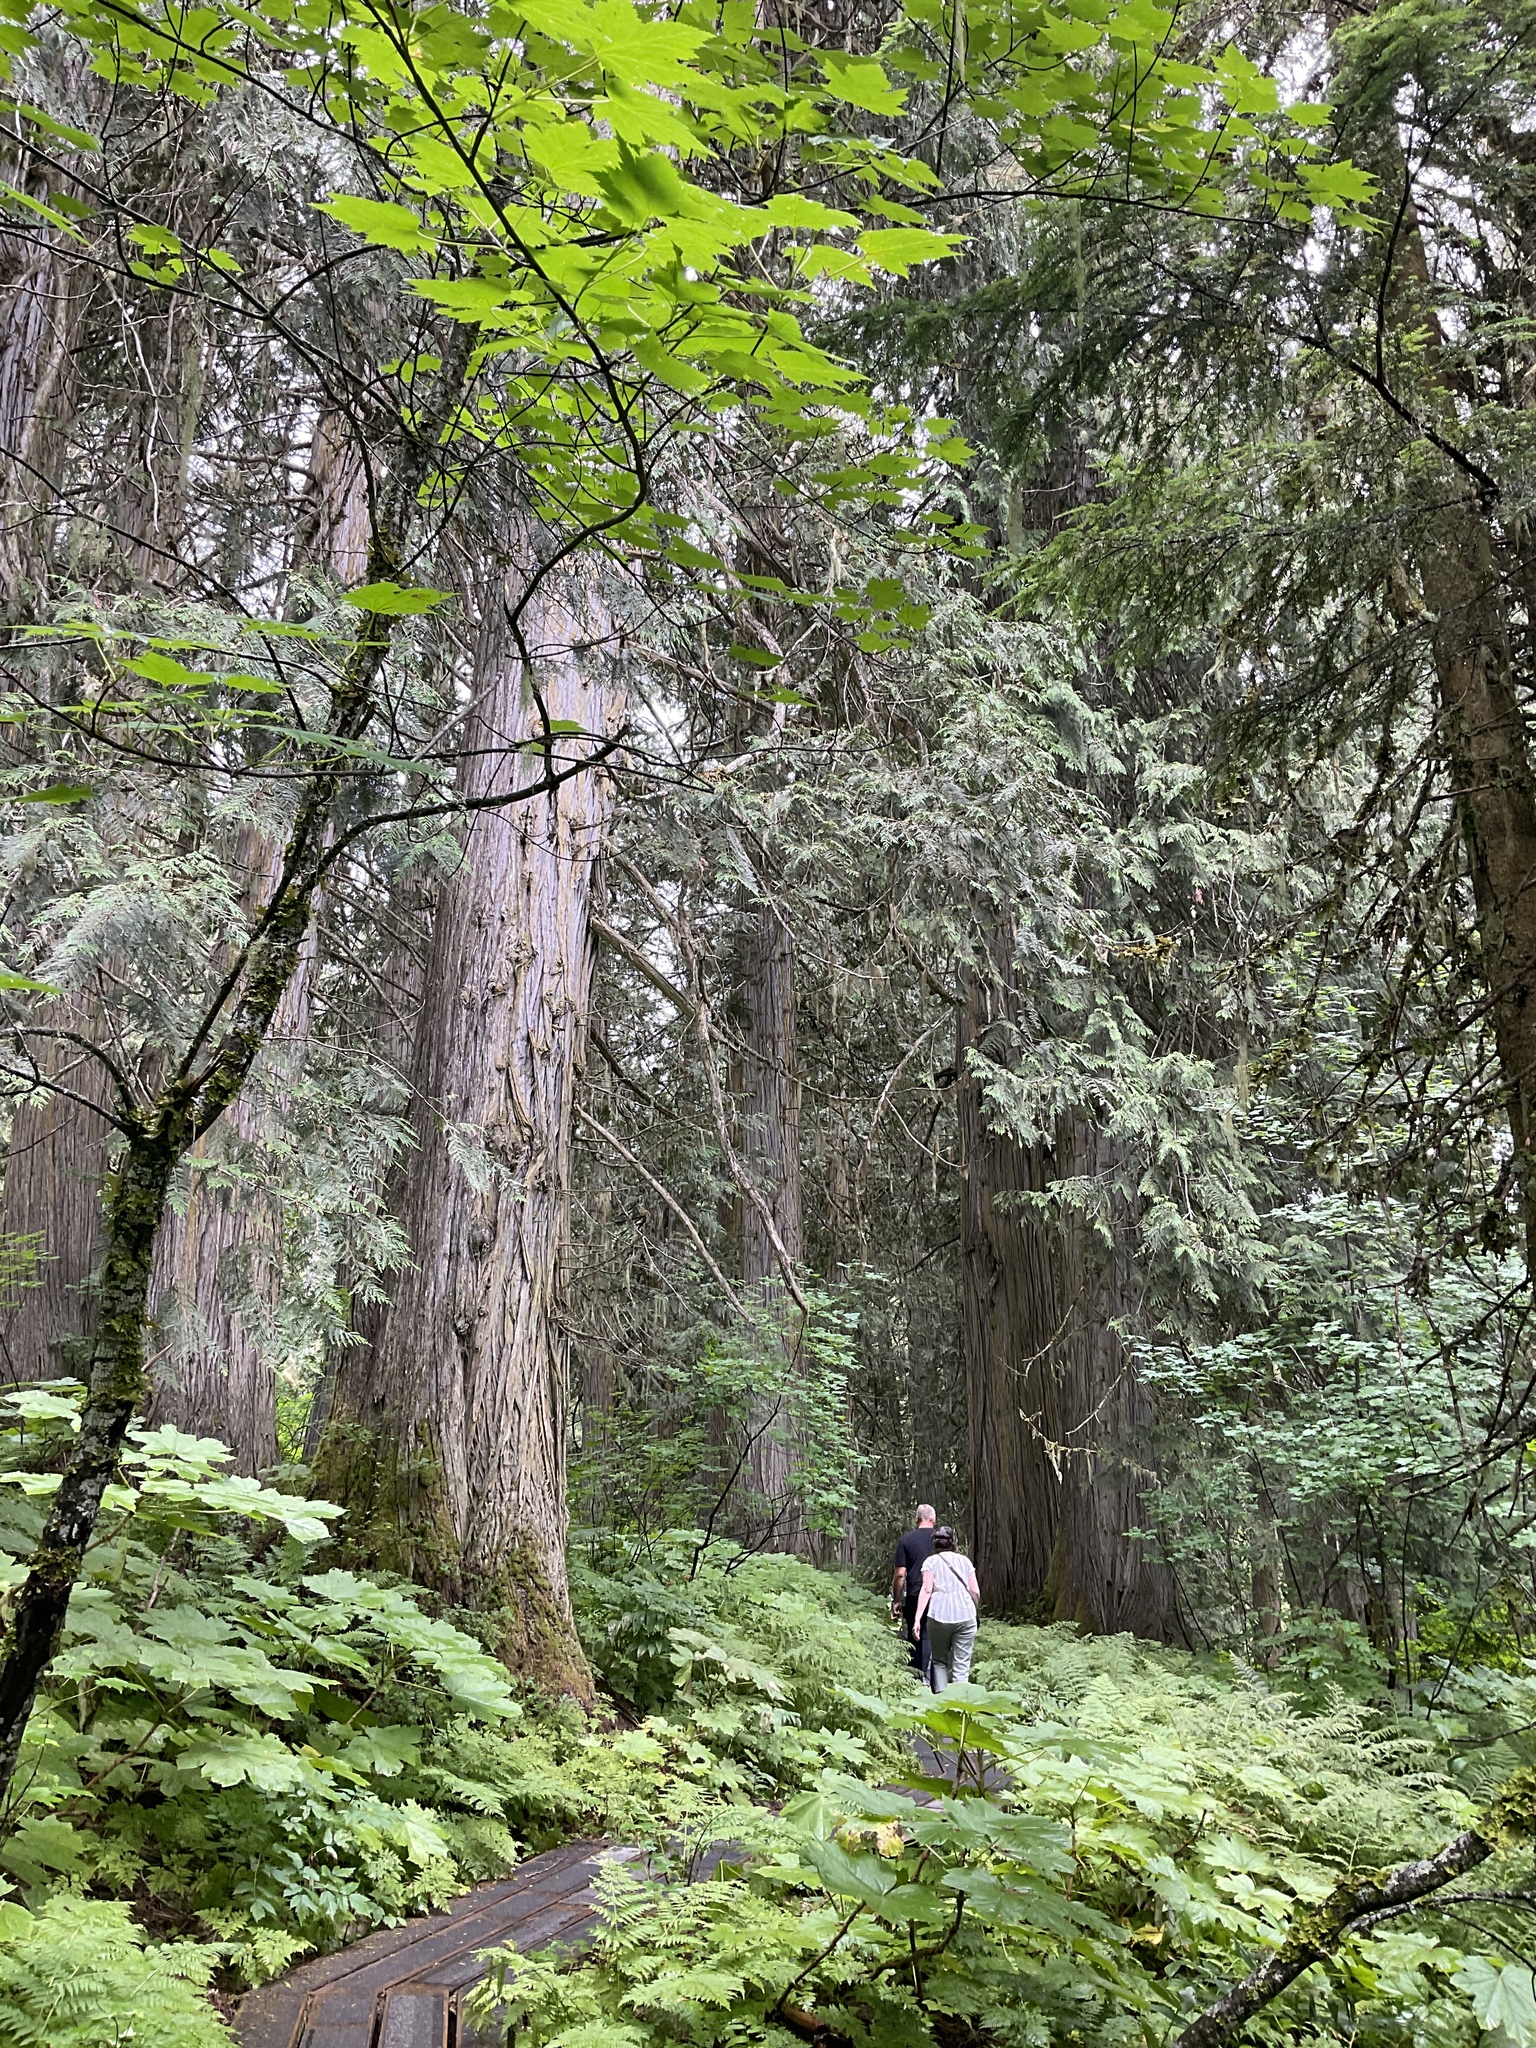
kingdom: Plantae
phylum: Tracheophyta
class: Magnoliopsida
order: Sapindales
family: Sapindaceae
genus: Acer
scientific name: Acer glabrum
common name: Rocky mountain maple
